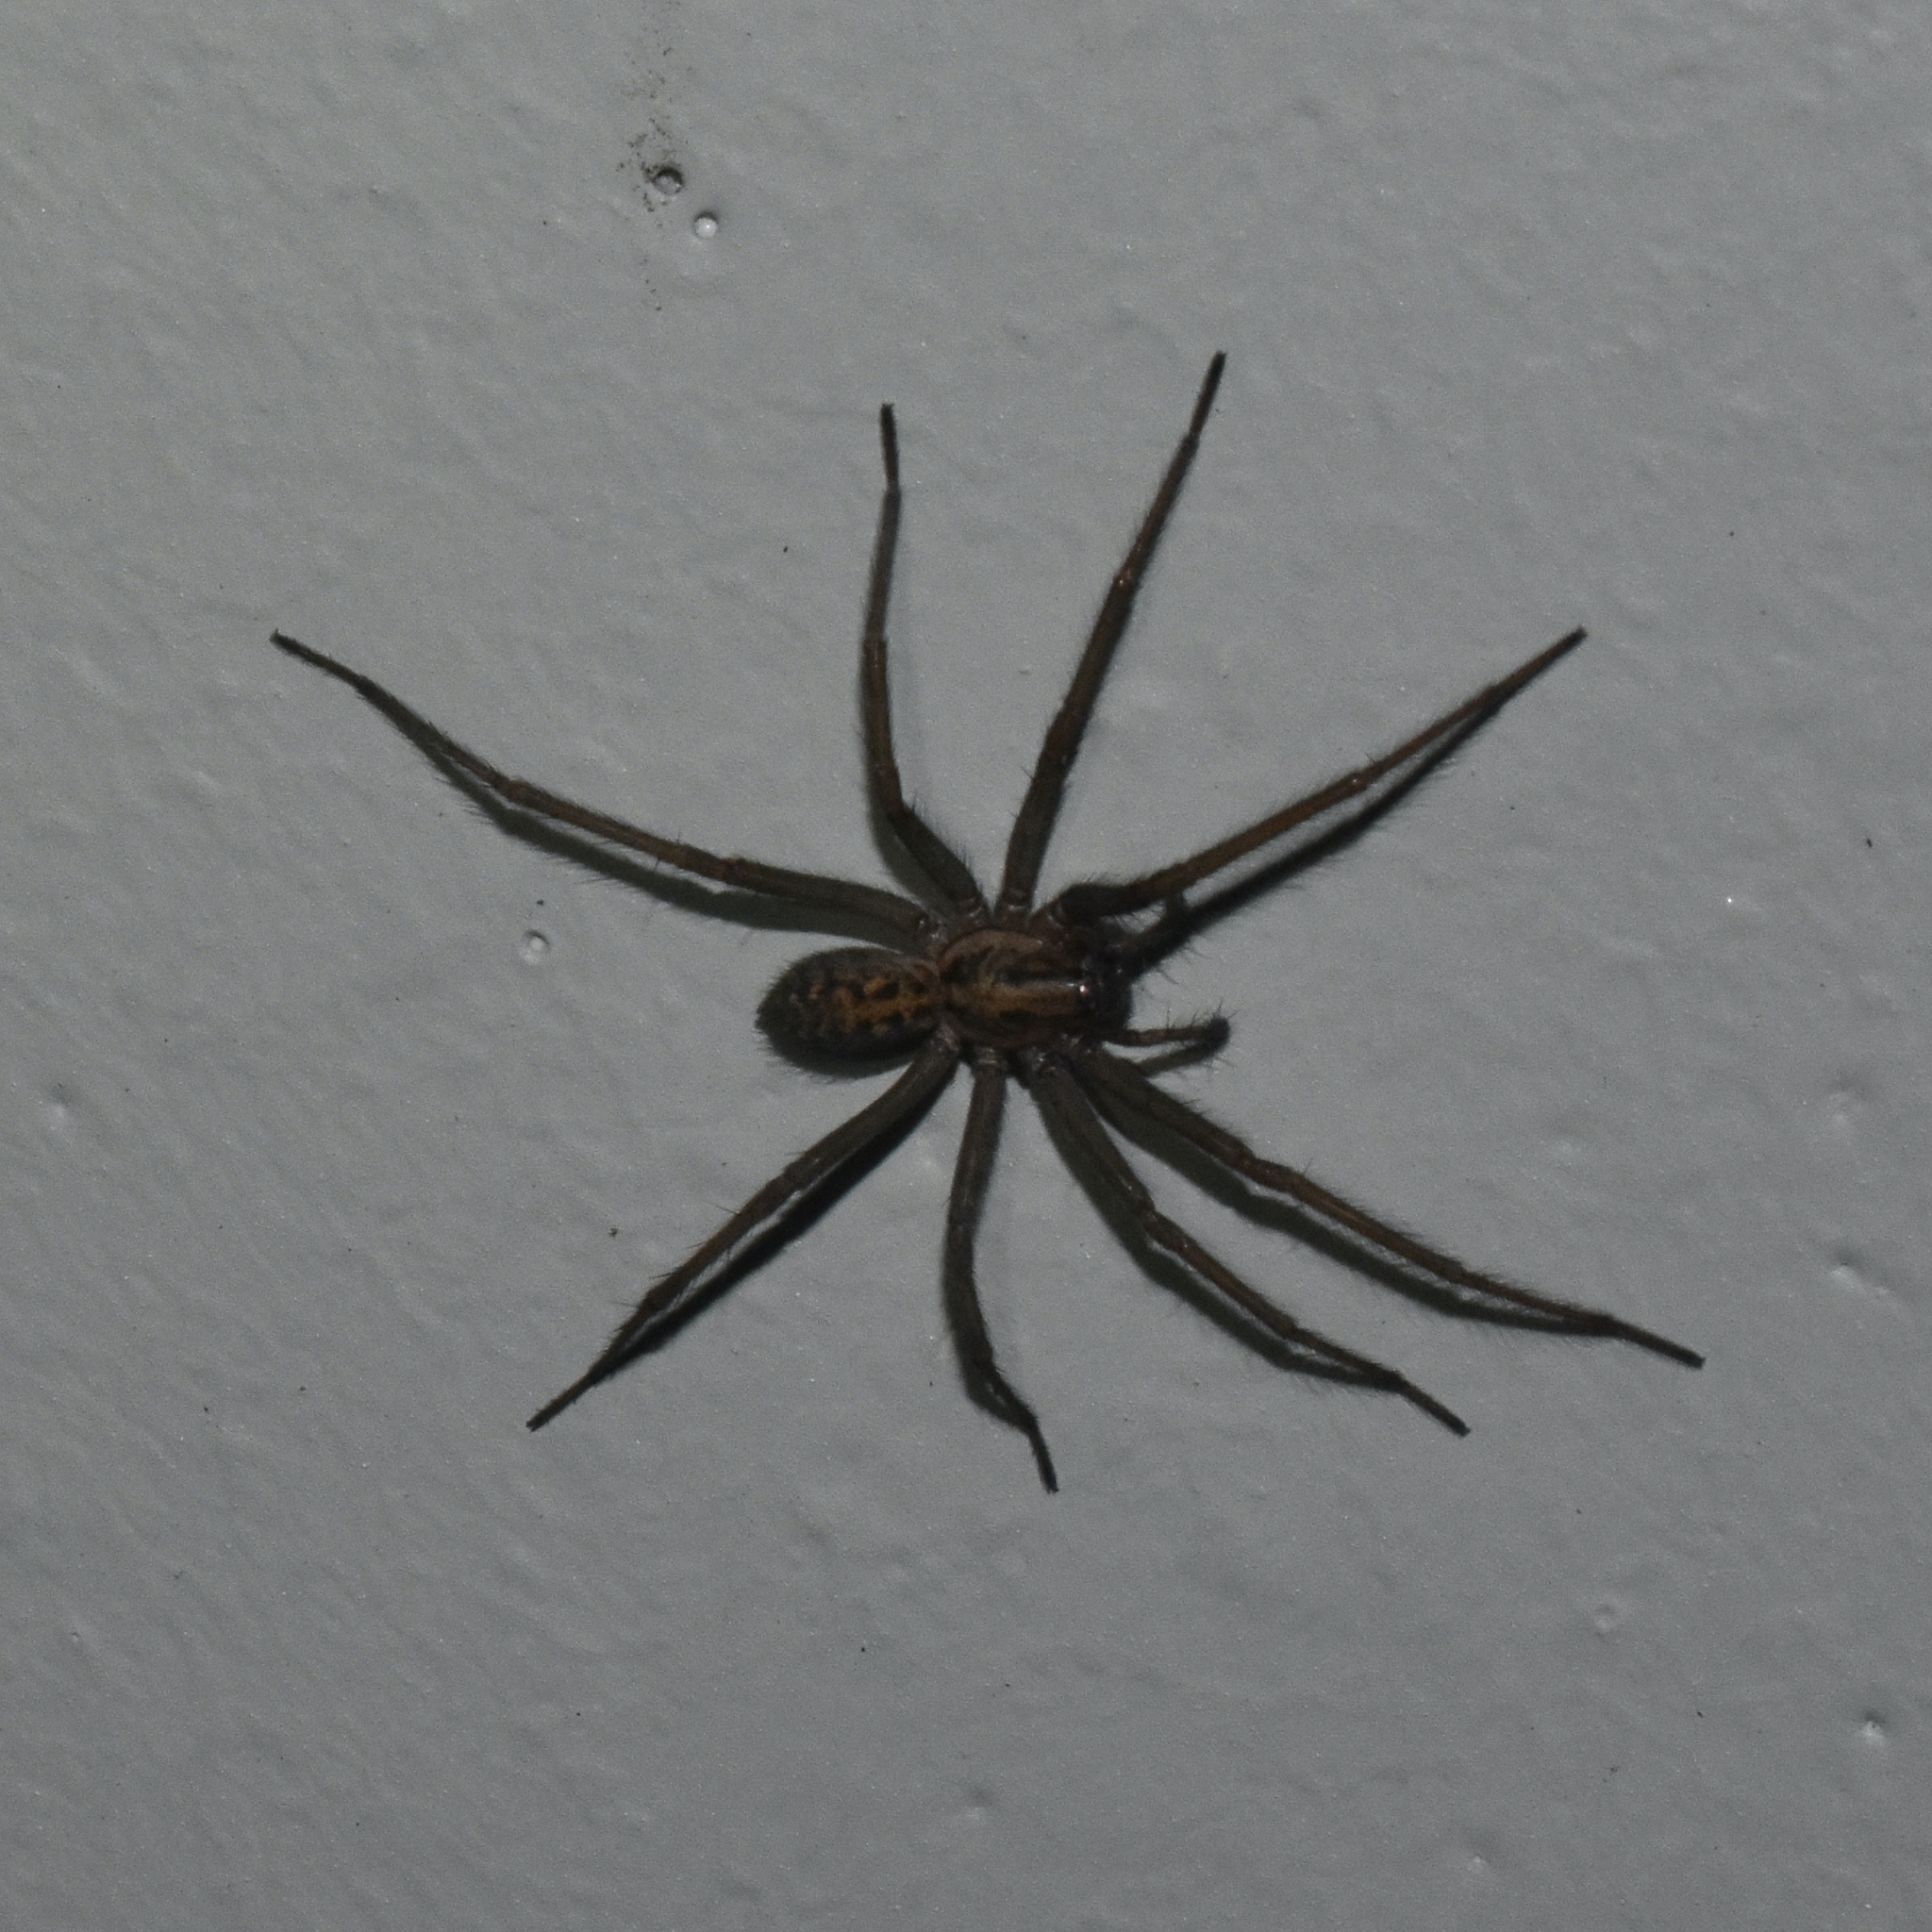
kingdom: Animalia
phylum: Arthropoda
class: Arachnida
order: Araneae
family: Agelenidae
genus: Eratigena
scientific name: Eratigena duellica
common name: Giant house spider
